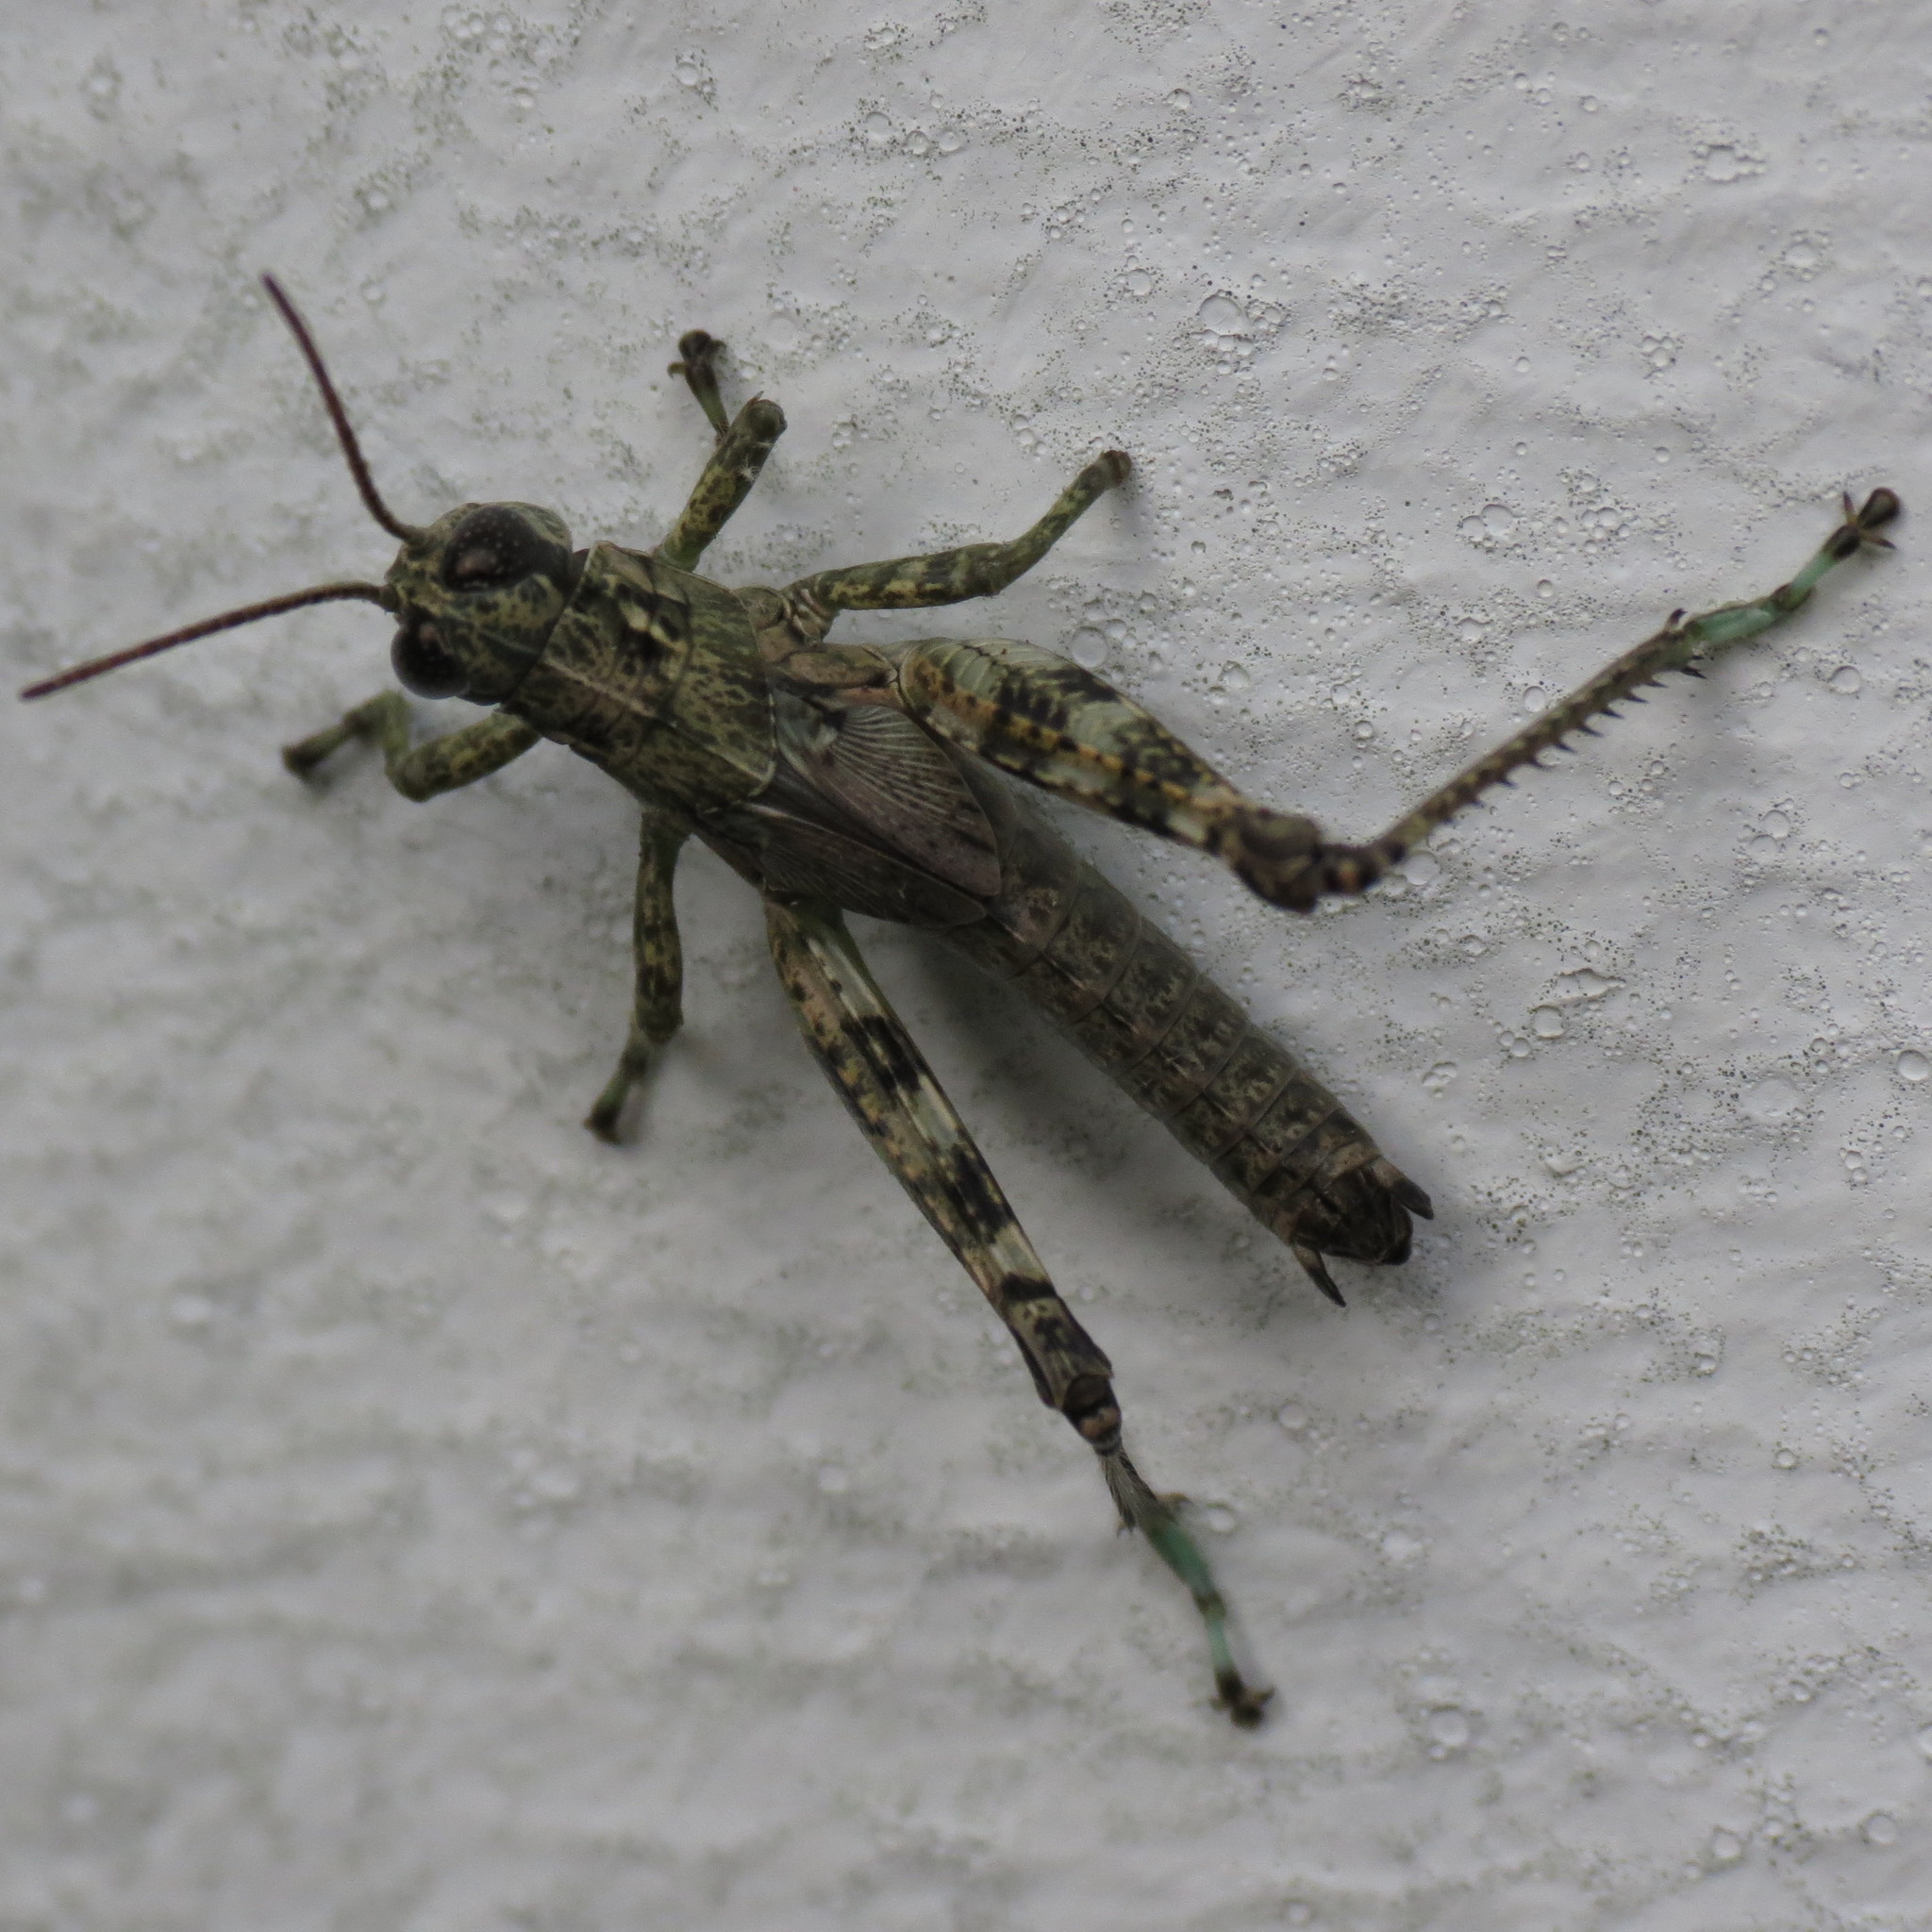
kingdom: Animalia
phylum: Arthropoda
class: Insecta
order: Orthoptera
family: Acrididae
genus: Melanoplus
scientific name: Melanoplus punctulatus
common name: Pine-tree spur-throat grasshopper
